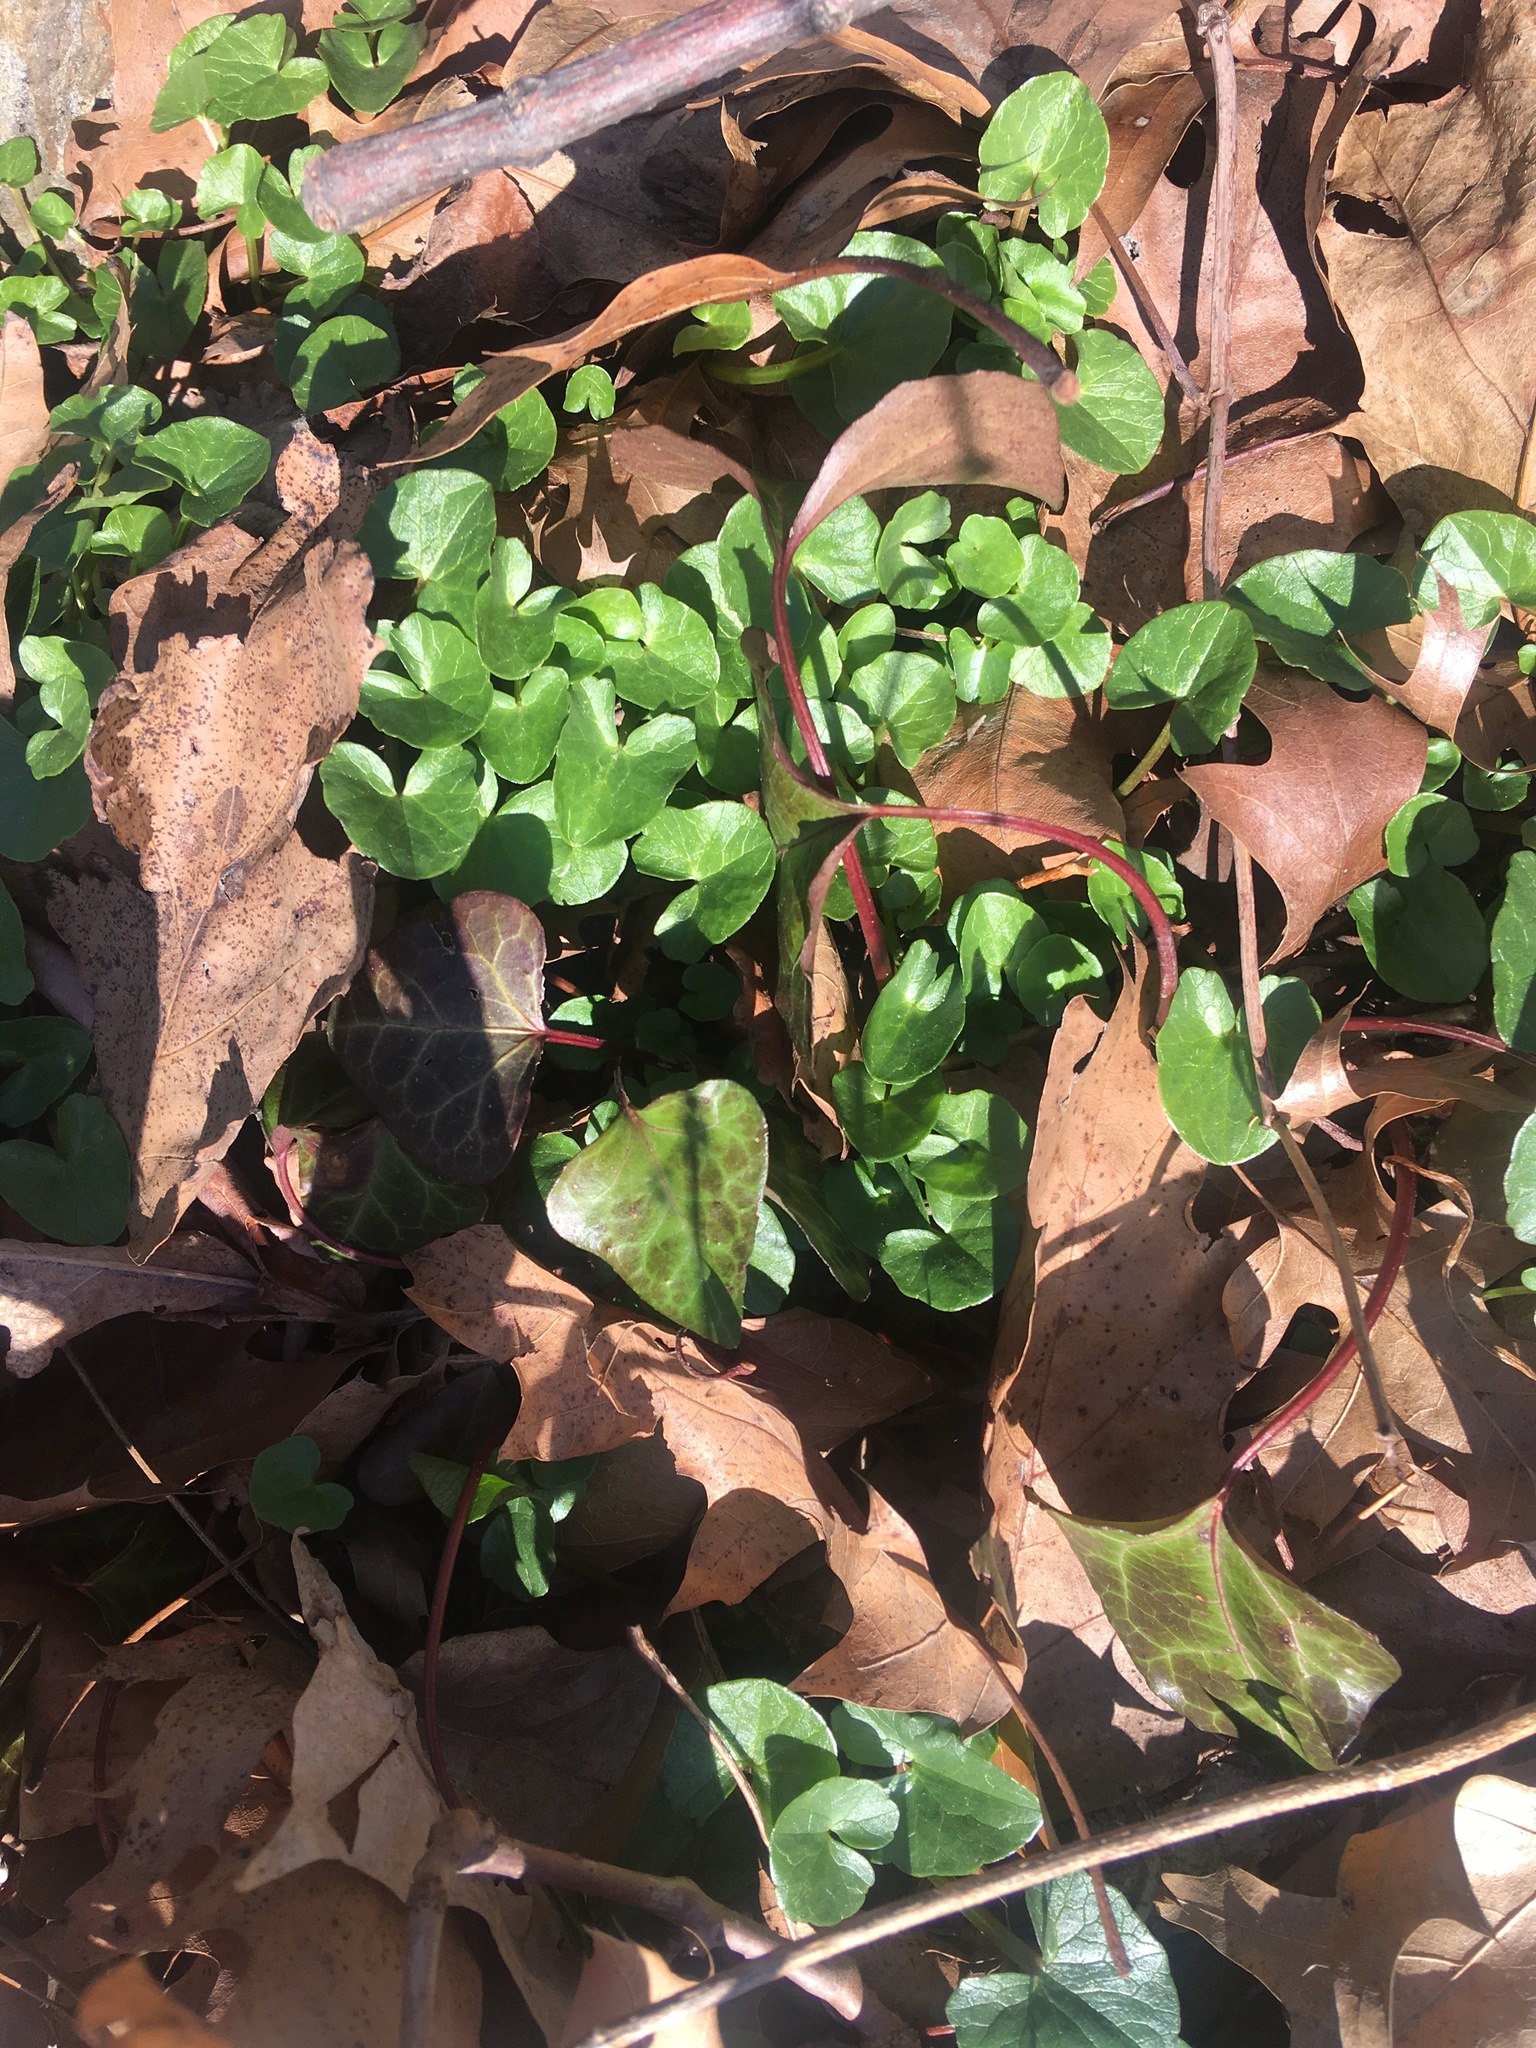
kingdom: Plantae
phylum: Tracheophyta
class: Magnoliopsida
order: Ranunculales
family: Ranunculaceae
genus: Ficaria
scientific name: Ficaria verna
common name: Lesser celandine
